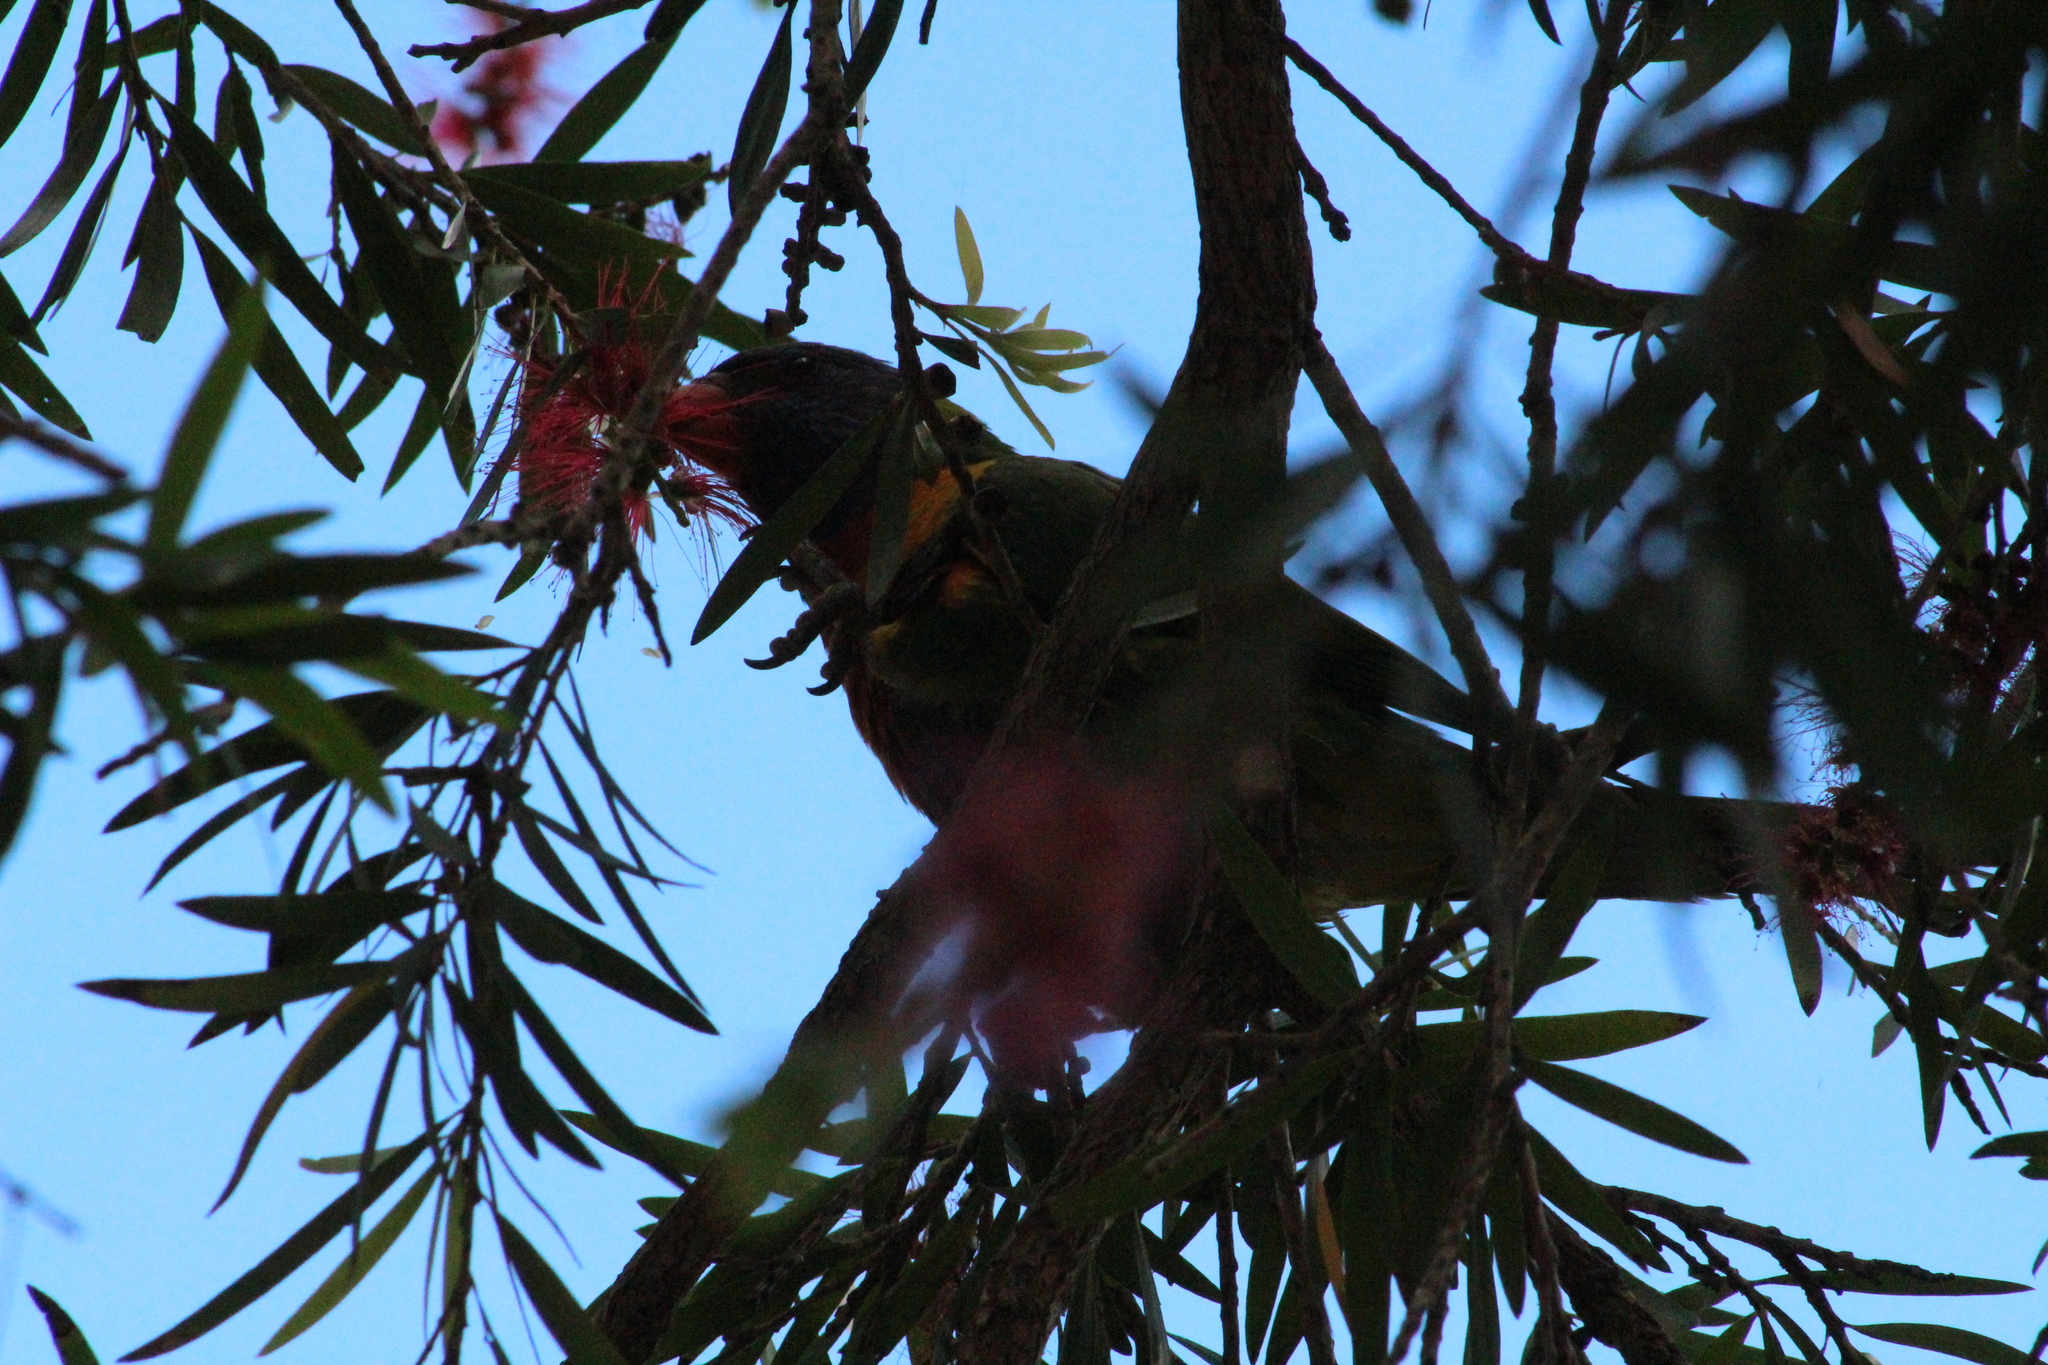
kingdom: Animalia
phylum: Chordata
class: Aves
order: Psittaciformes
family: Psittacidae
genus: Trichoglossus
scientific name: Trichoglossus haematodus
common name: Coconut lorikeet
